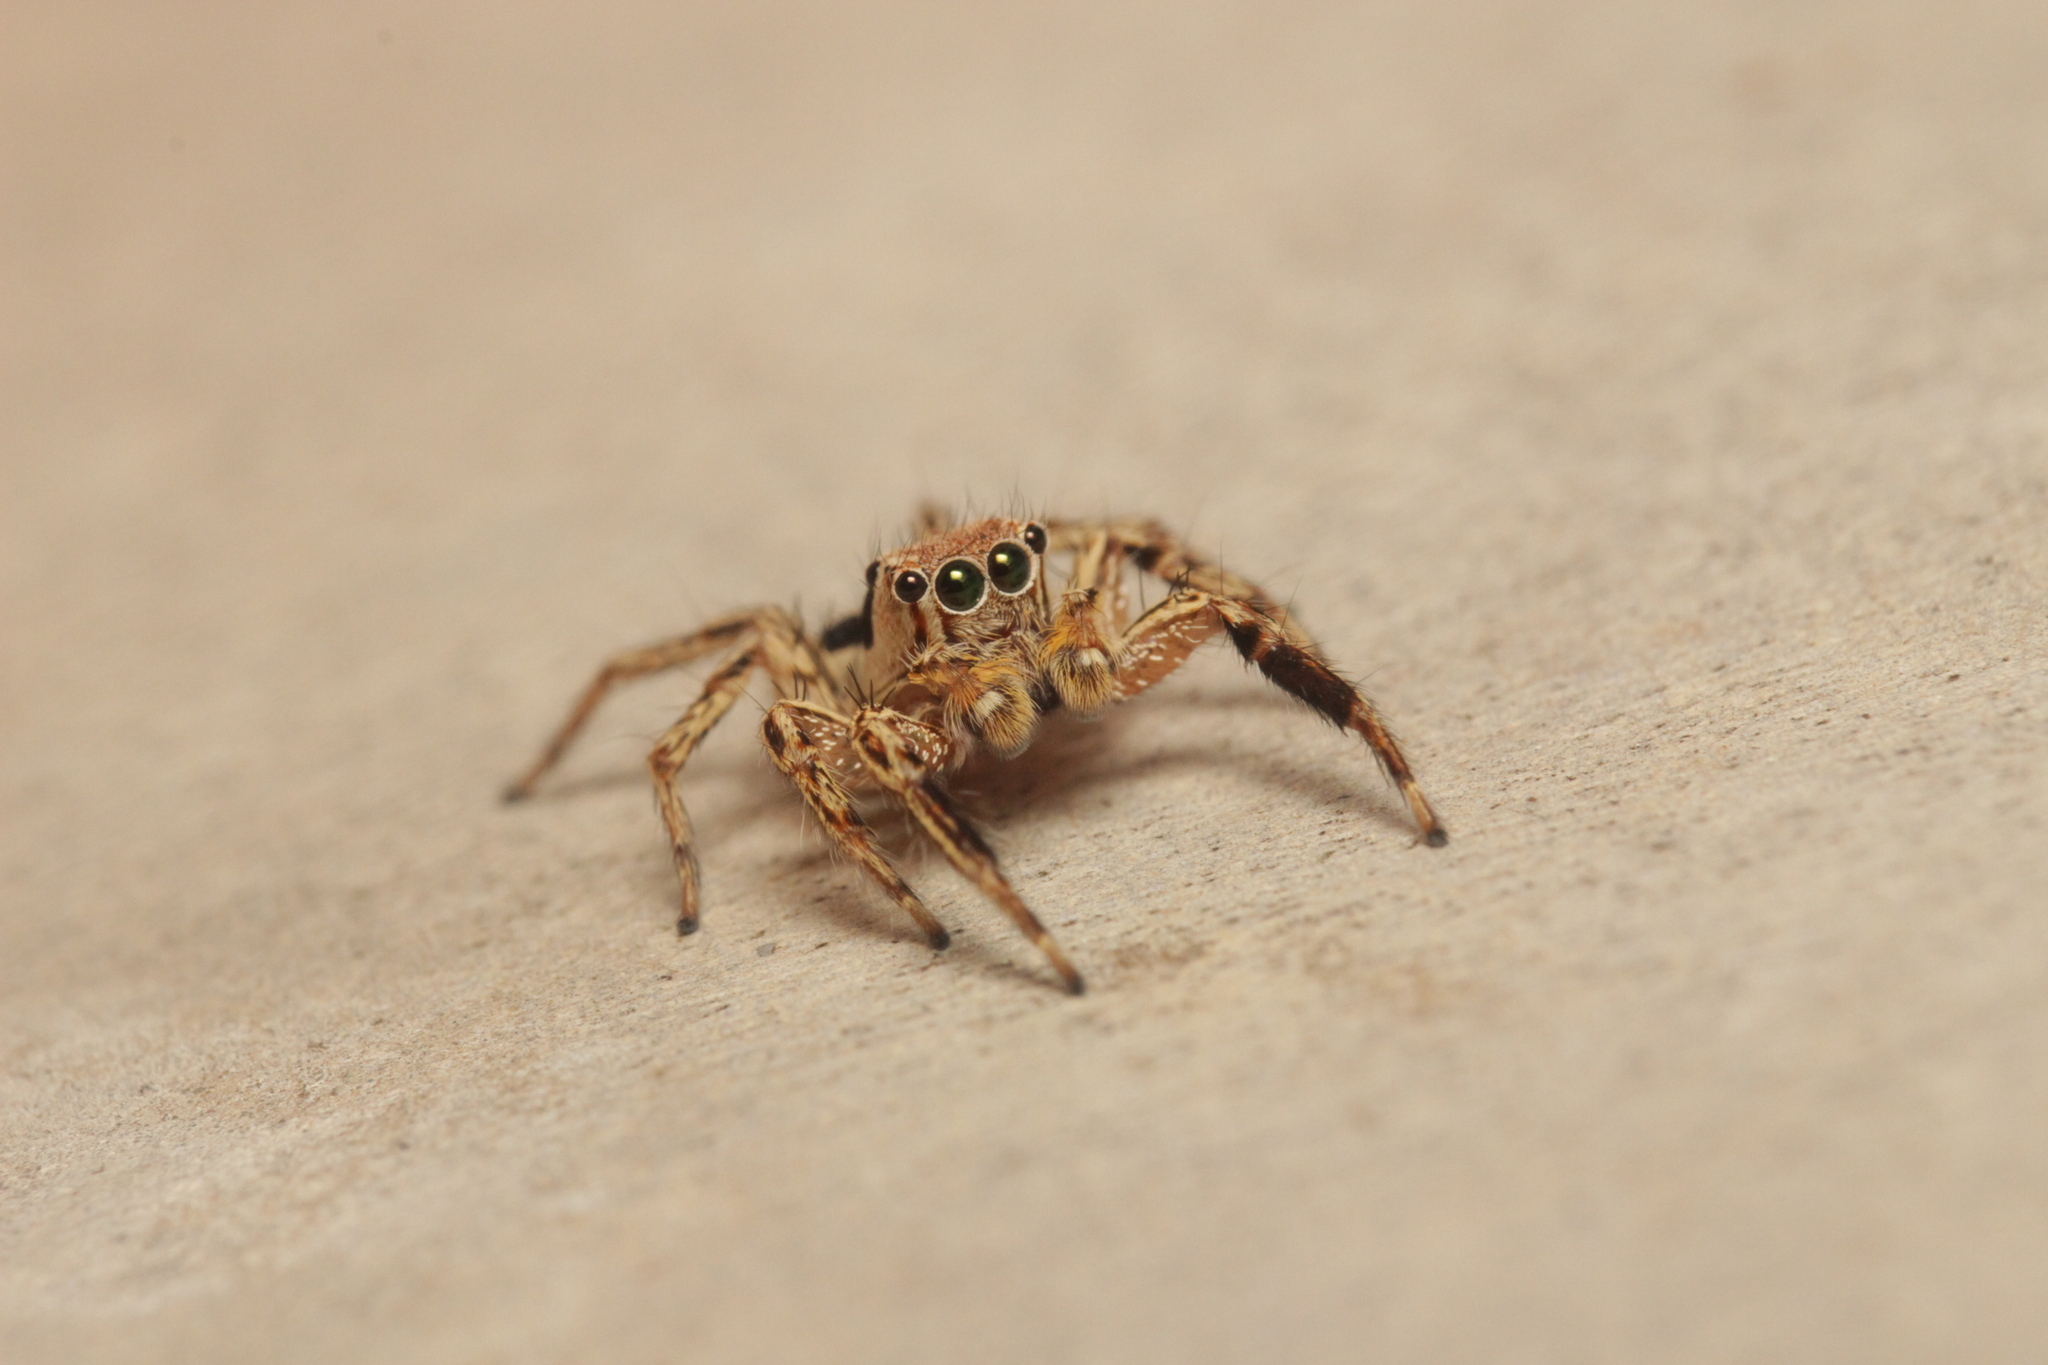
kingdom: Animalia
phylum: Arthropoda
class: Arachnida
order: Araneae
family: Salticidae
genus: Plexippus
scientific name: Plexippus petersi
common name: Jumping spider
